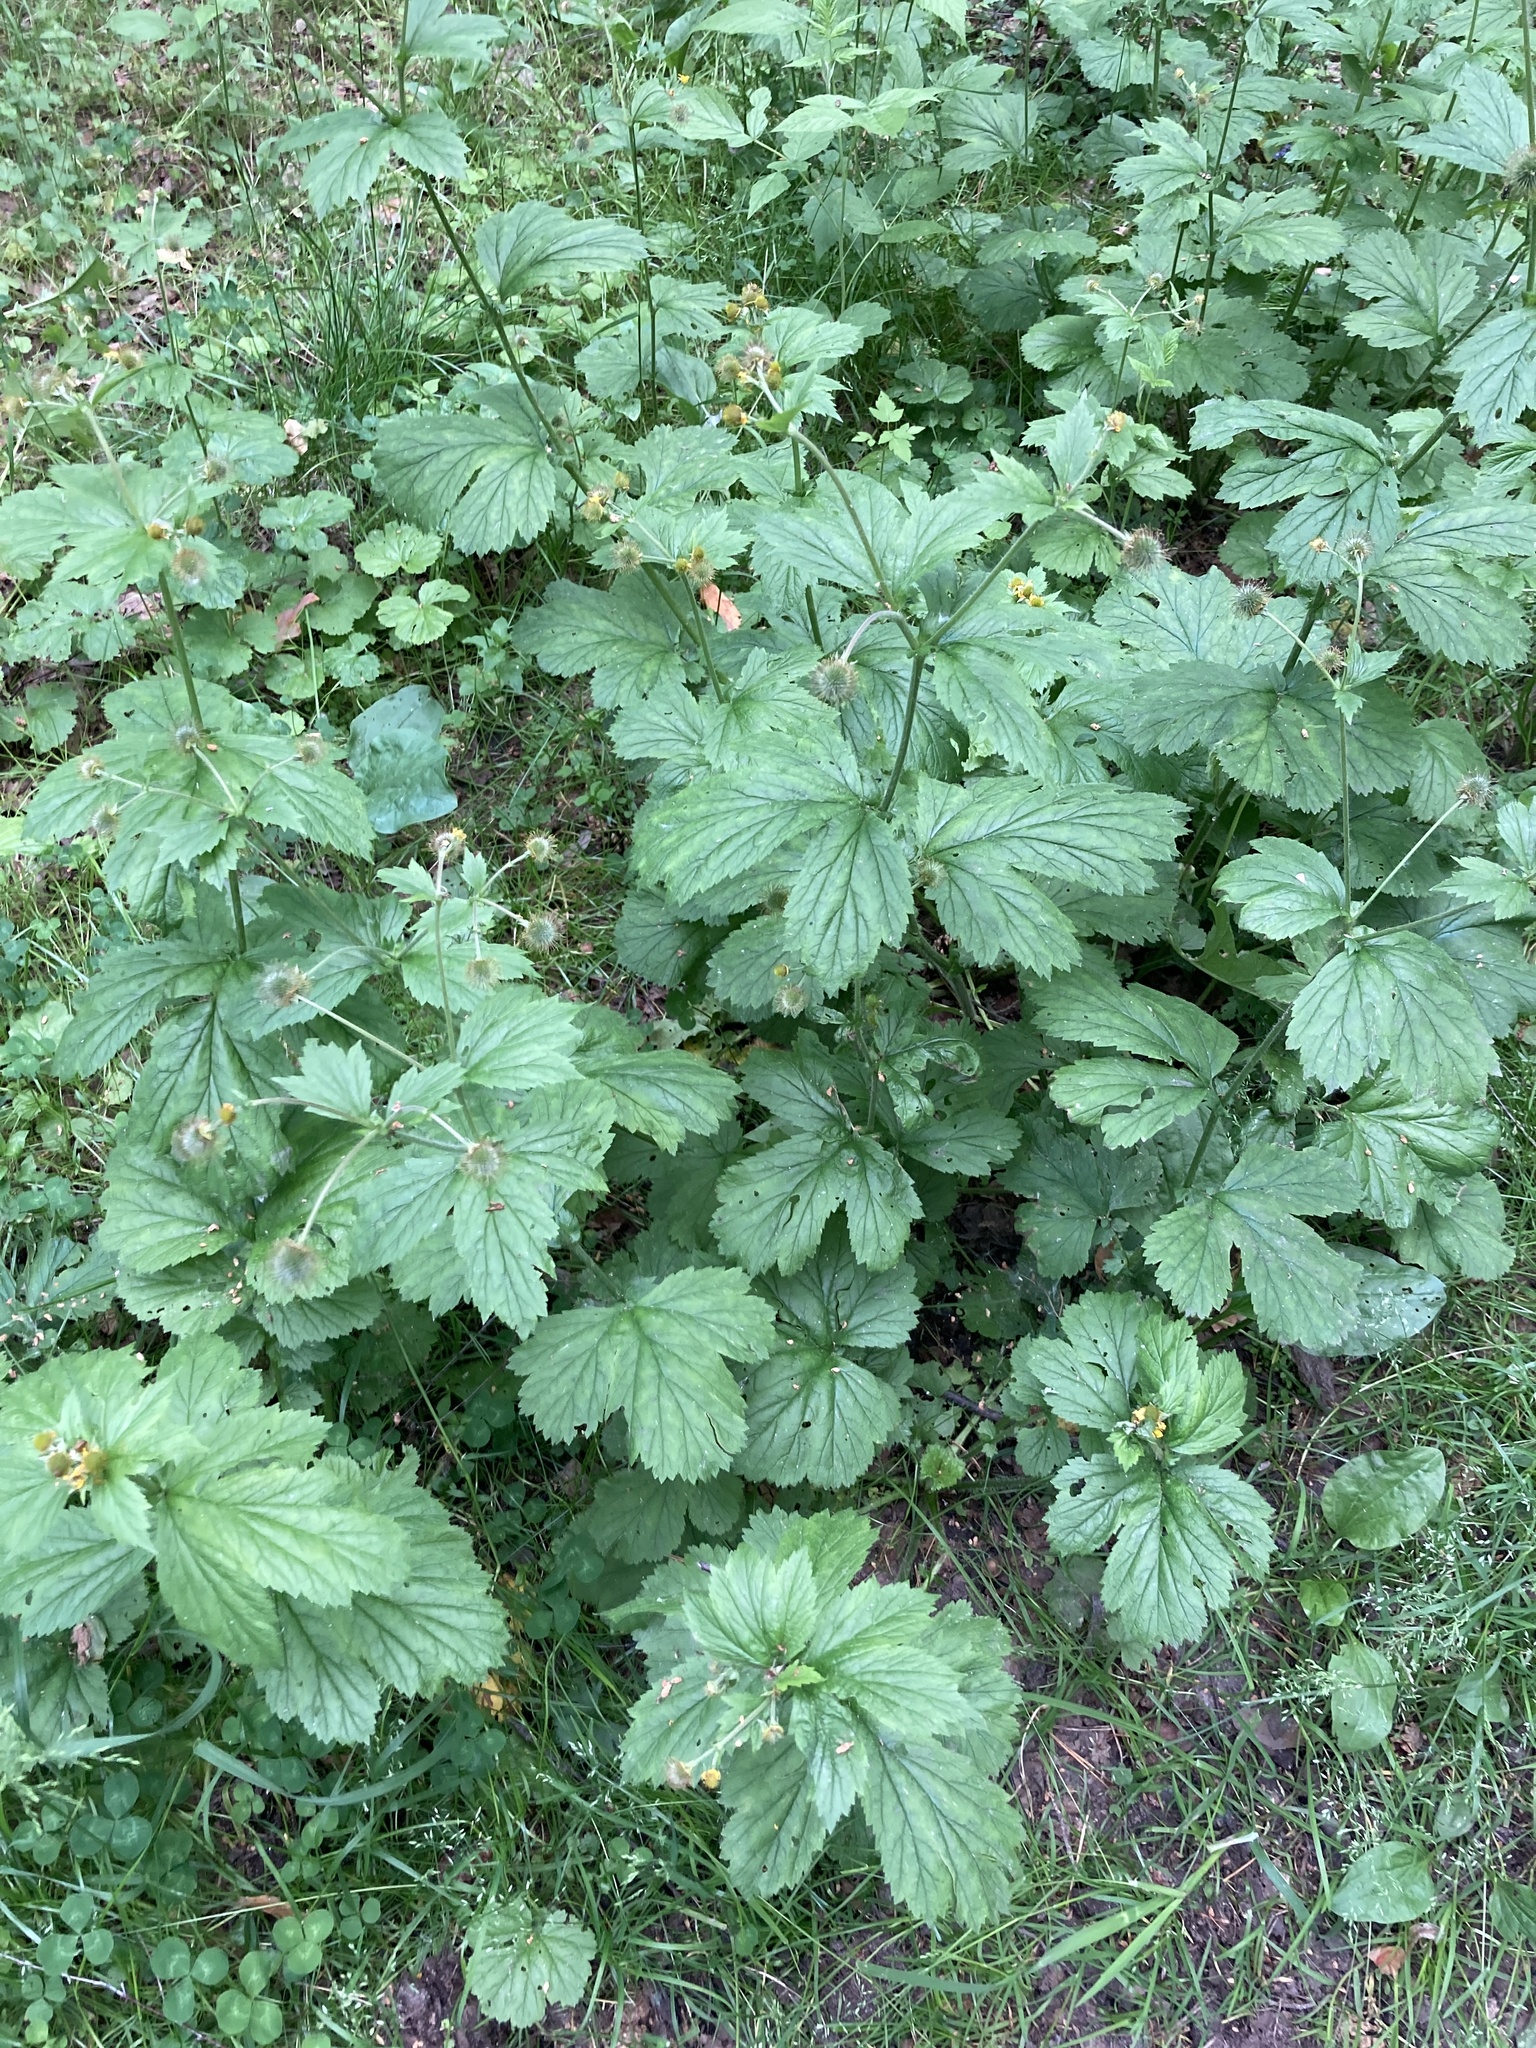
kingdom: Plantae
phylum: Tracheophyta
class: Magnoliopsida
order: Rosales
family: Rosaceae
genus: Geum
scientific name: Geum macrophyllum
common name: Large-leaved avens
